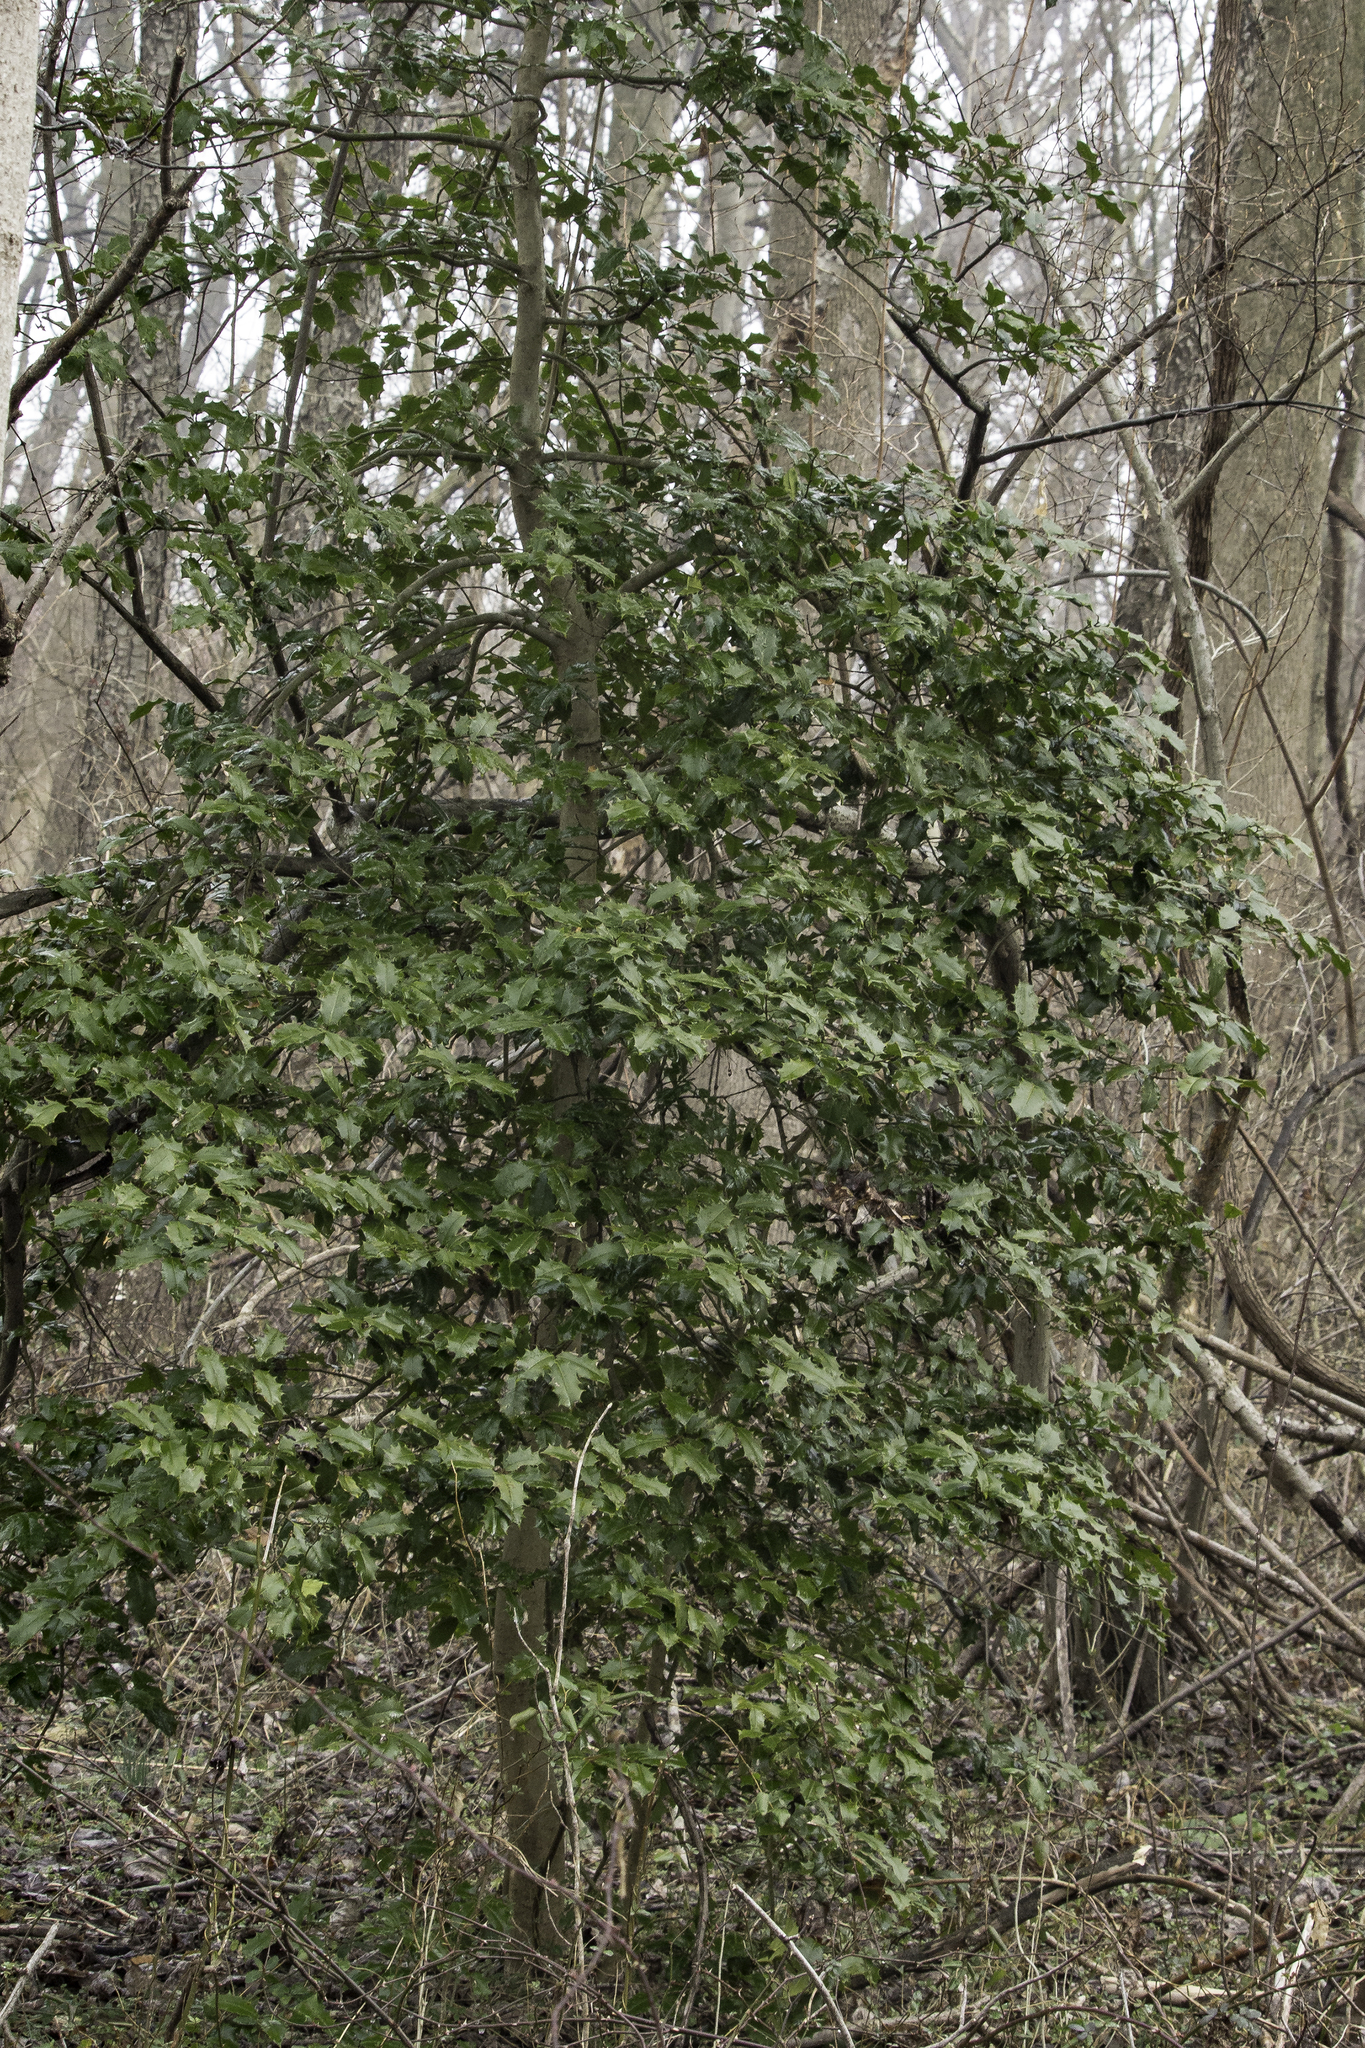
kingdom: Plantae
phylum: Tracheophyta
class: Magnoliopsida
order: Aquifoliales
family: Aquifoliaceae
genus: Ilex
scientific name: Ilex opaca
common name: American holly
